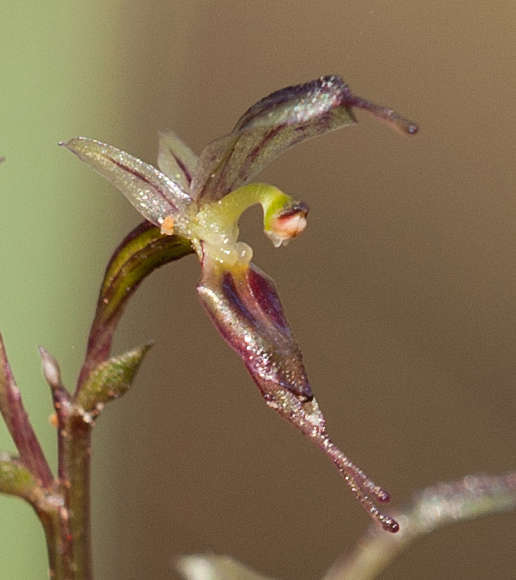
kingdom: Plantae
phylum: Tracheophyta
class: Liliopsida
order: Asparagales
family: Orchidaceae
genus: Acianthus
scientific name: Acianthus pusillus
